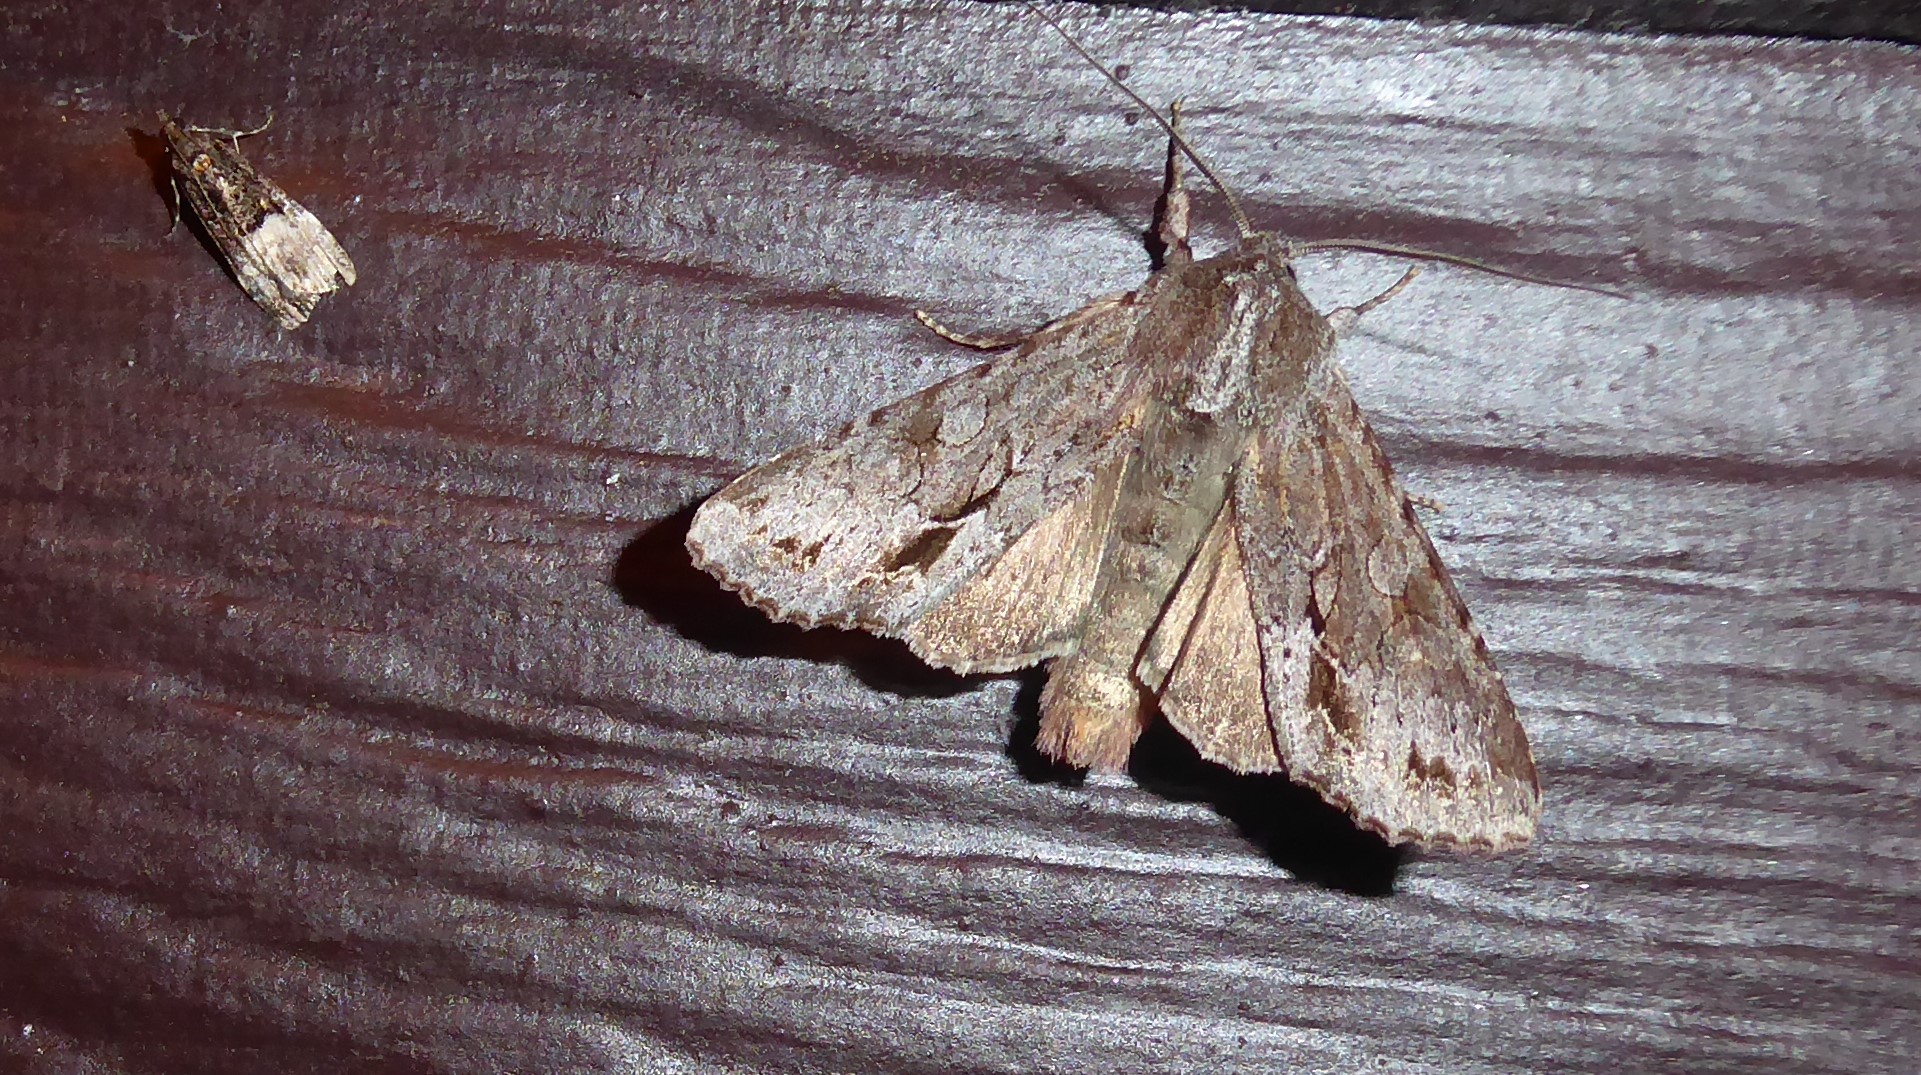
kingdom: Animalia
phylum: Arthropoda
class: Insecta
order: Lepidoptera
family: Noctuidae
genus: Ichneutica
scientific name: Ichneutica
